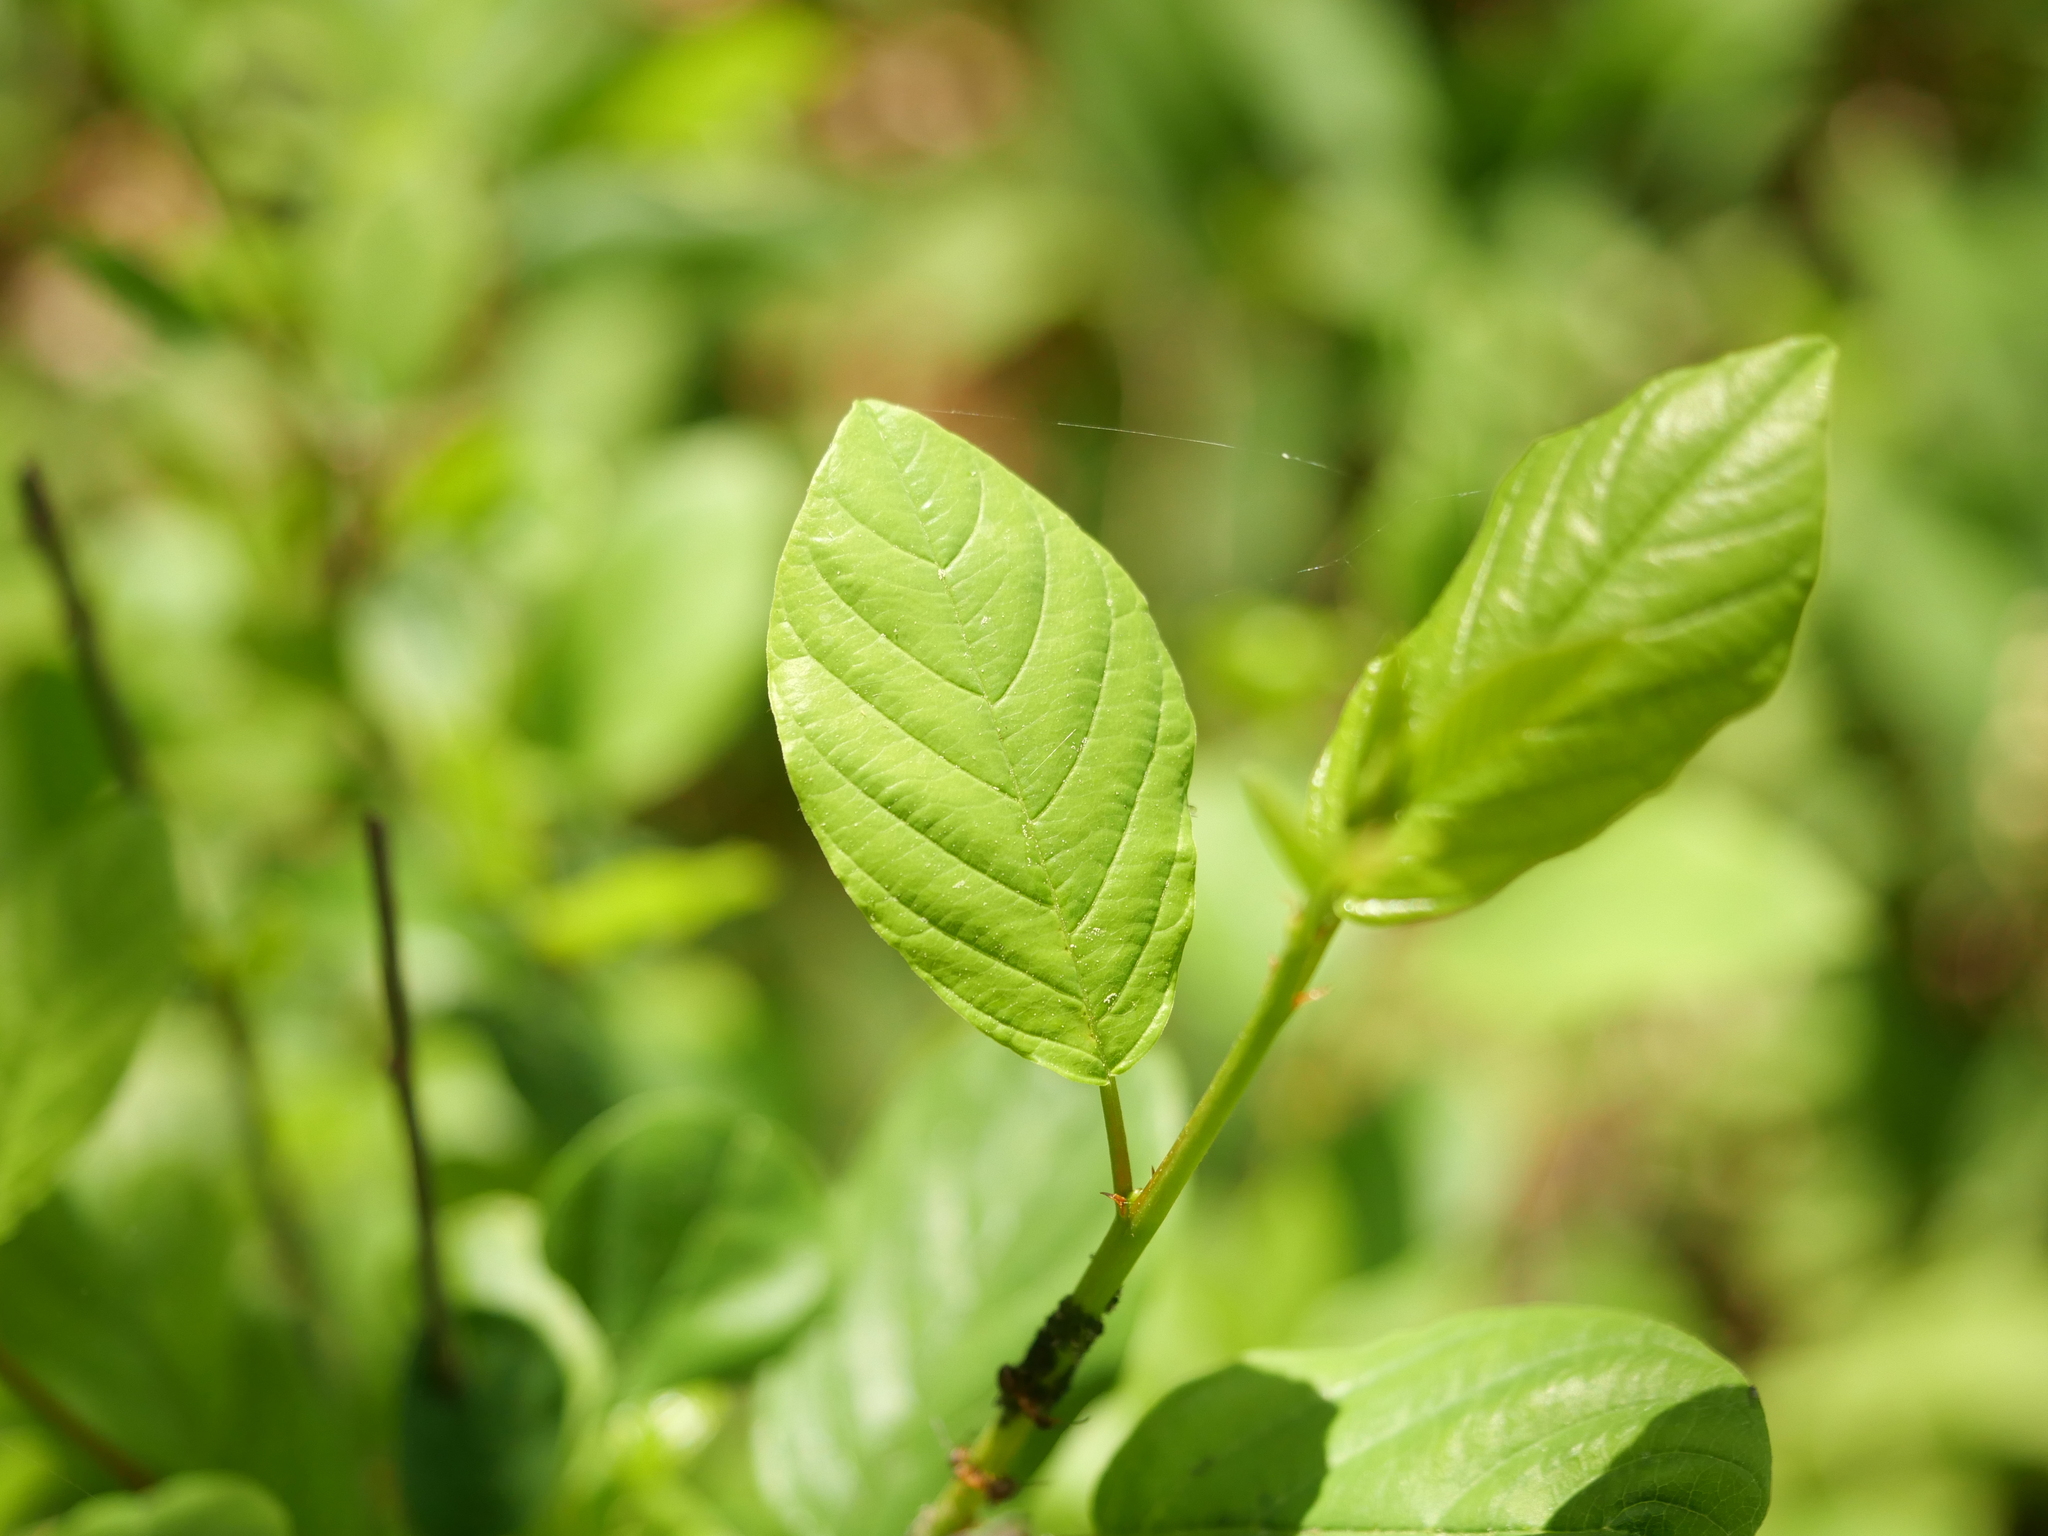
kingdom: Plantae
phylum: Tracheophyta
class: Magnoliopsida
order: Rosales
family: Rhamnaceae
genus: Frangula
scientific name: Frangula alnus
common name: Alder buckthorn
